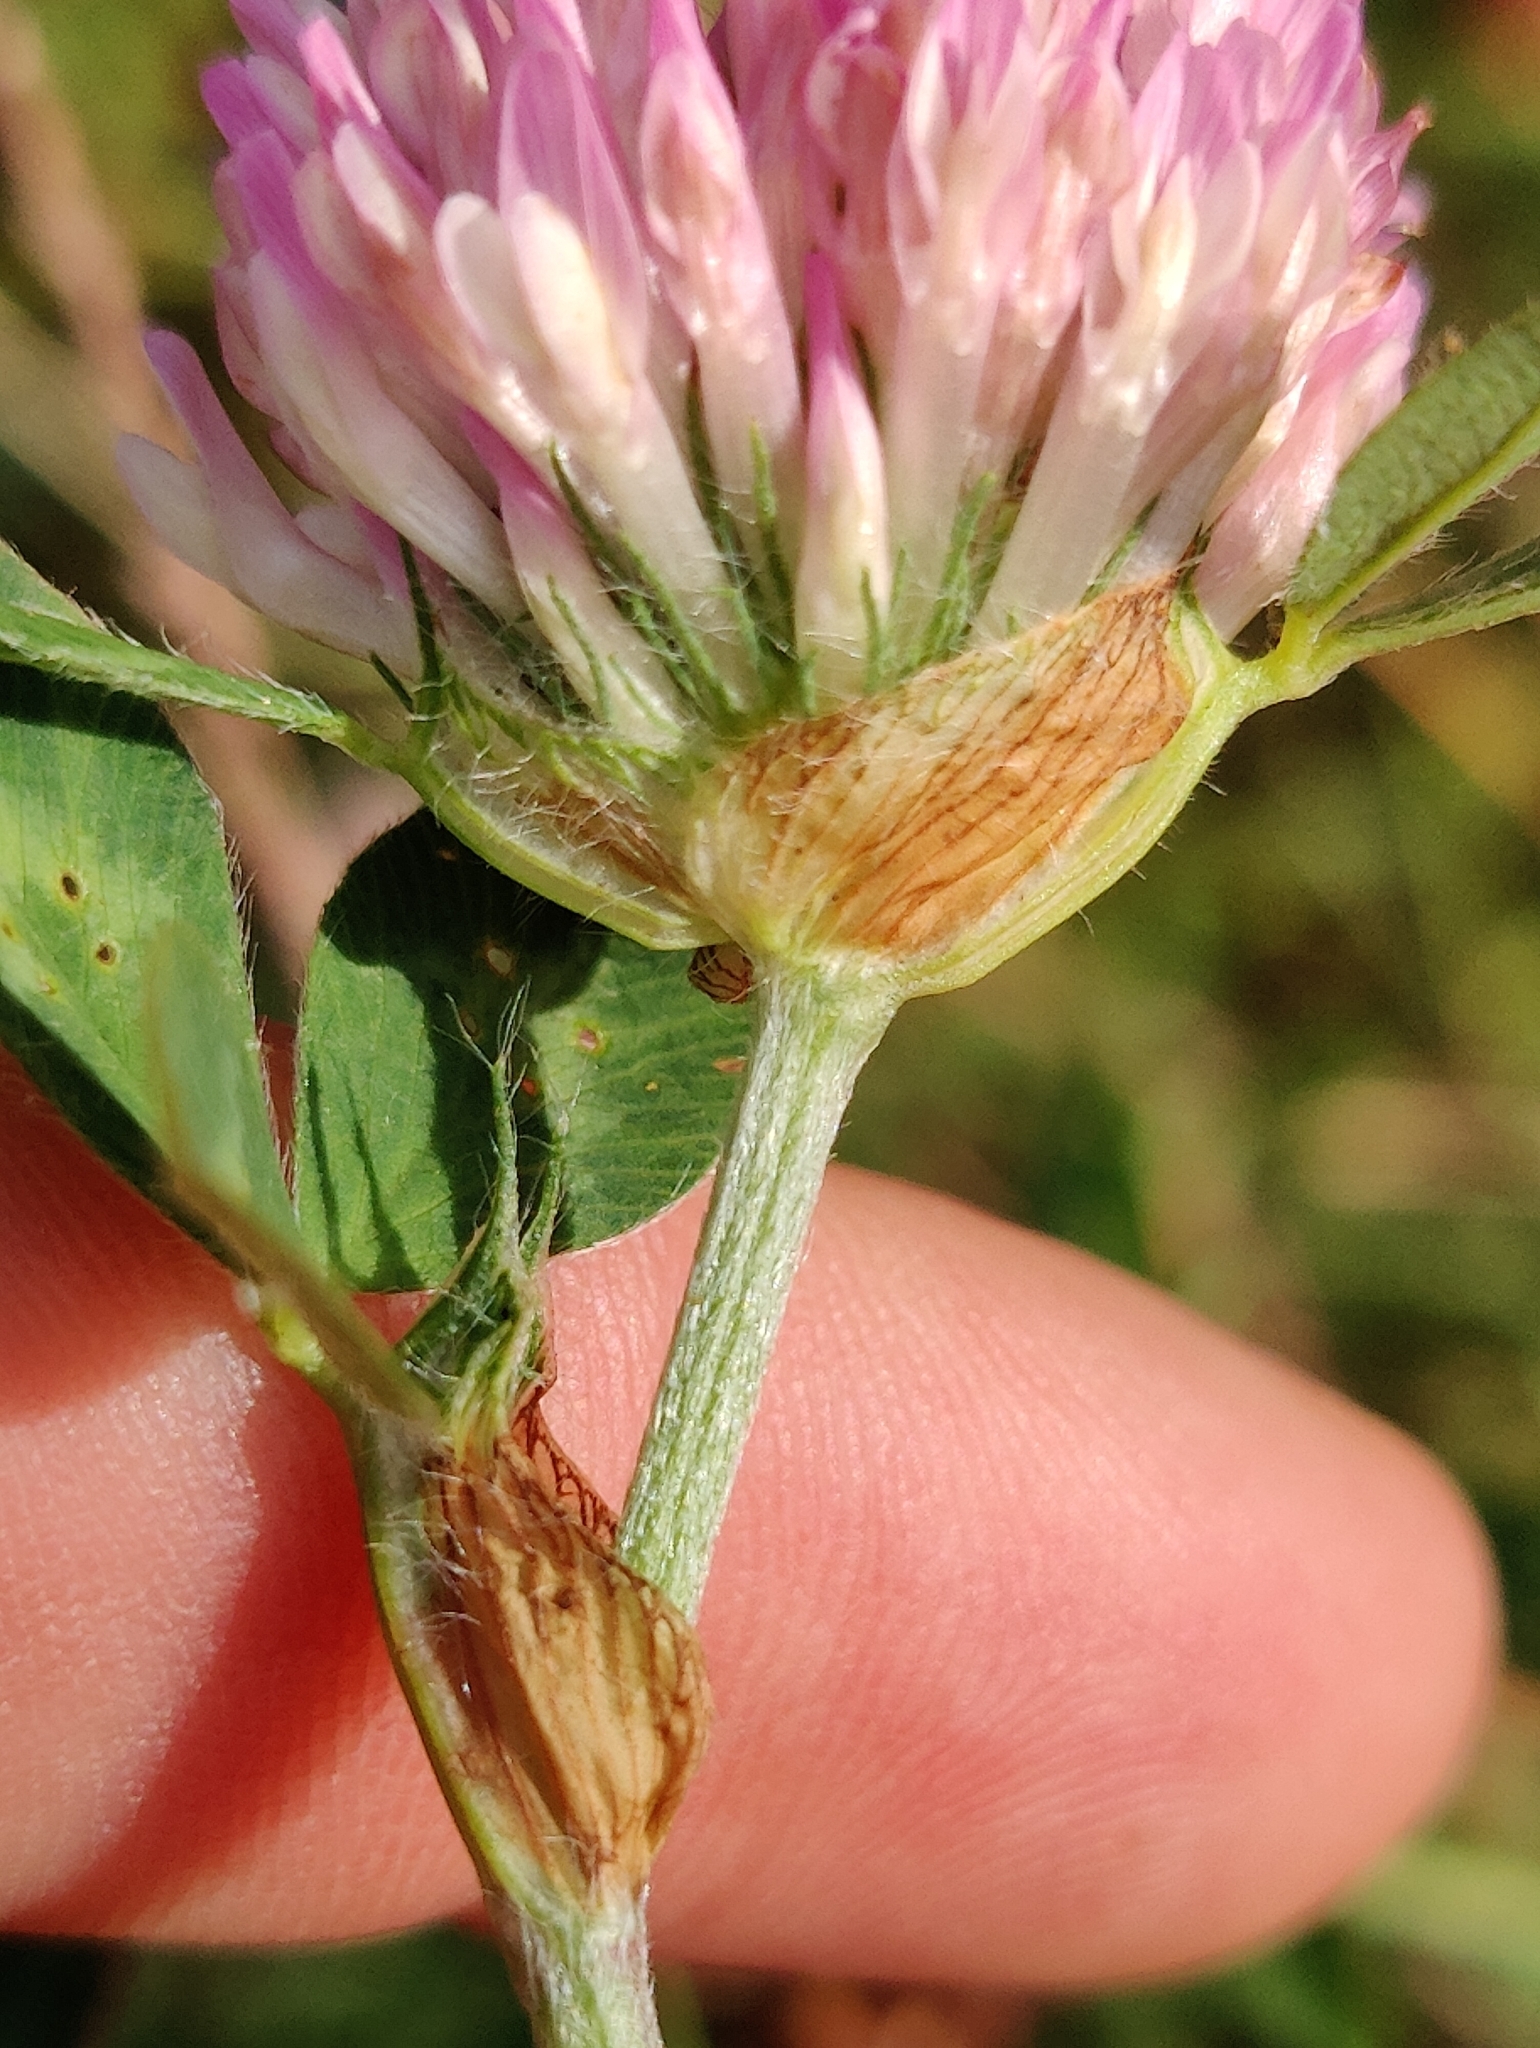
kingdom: Plantae
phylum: Tracheophyta
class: Magnoliopsida
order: Fabales
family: Fabaceae
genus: Trifolium
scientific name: Trifolium pratense
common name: Red clover
